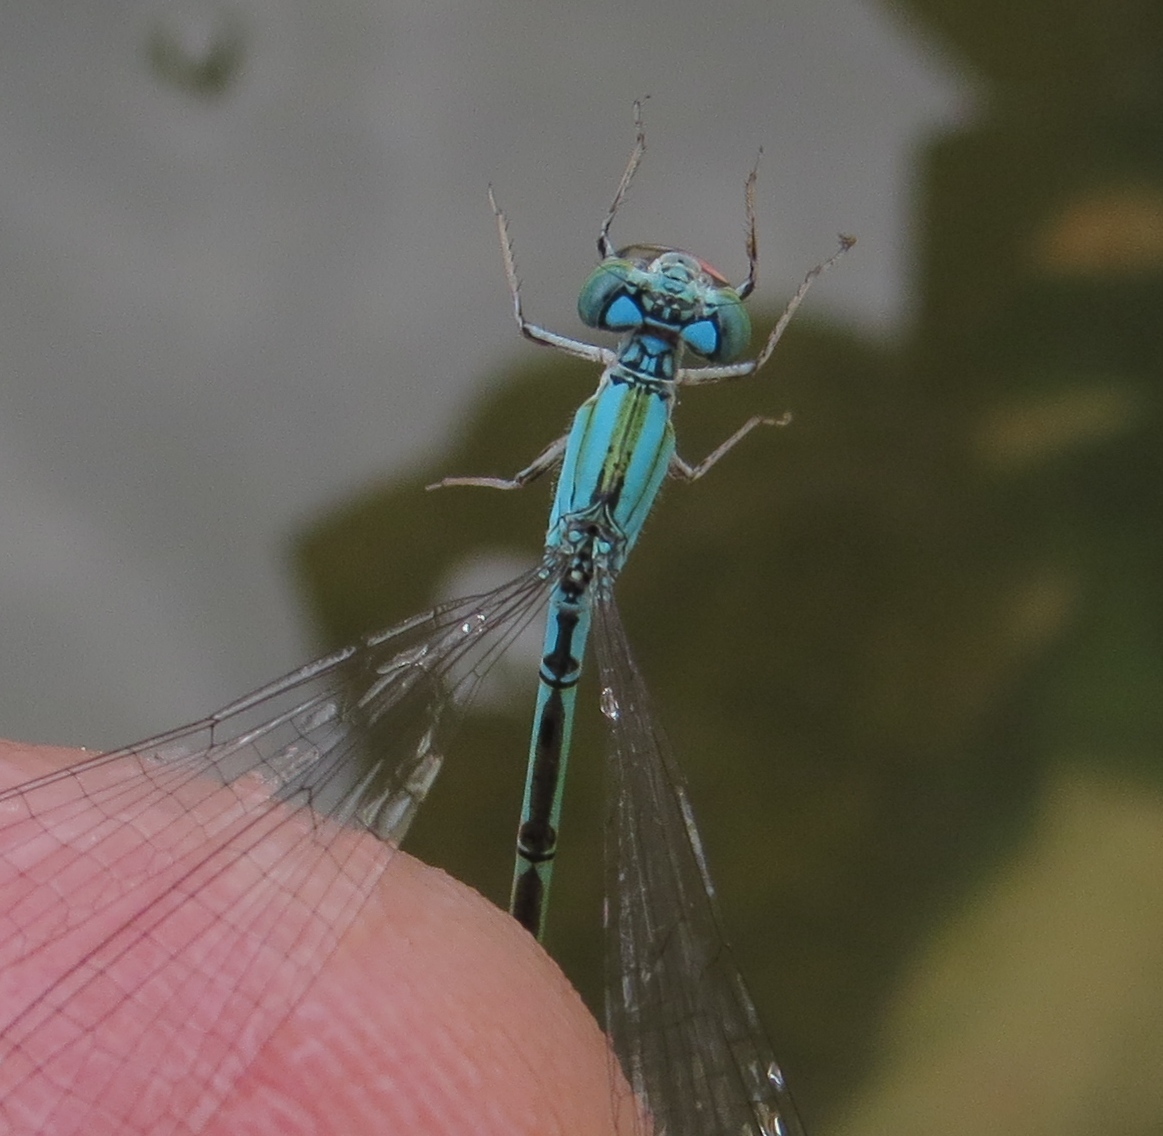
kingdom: Animalia
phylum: Arthropoda
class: Insecta
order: Odonata
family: Coenagrionidae
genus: Enallagma
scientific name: Enallagma traviatum
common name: Slender bluet
